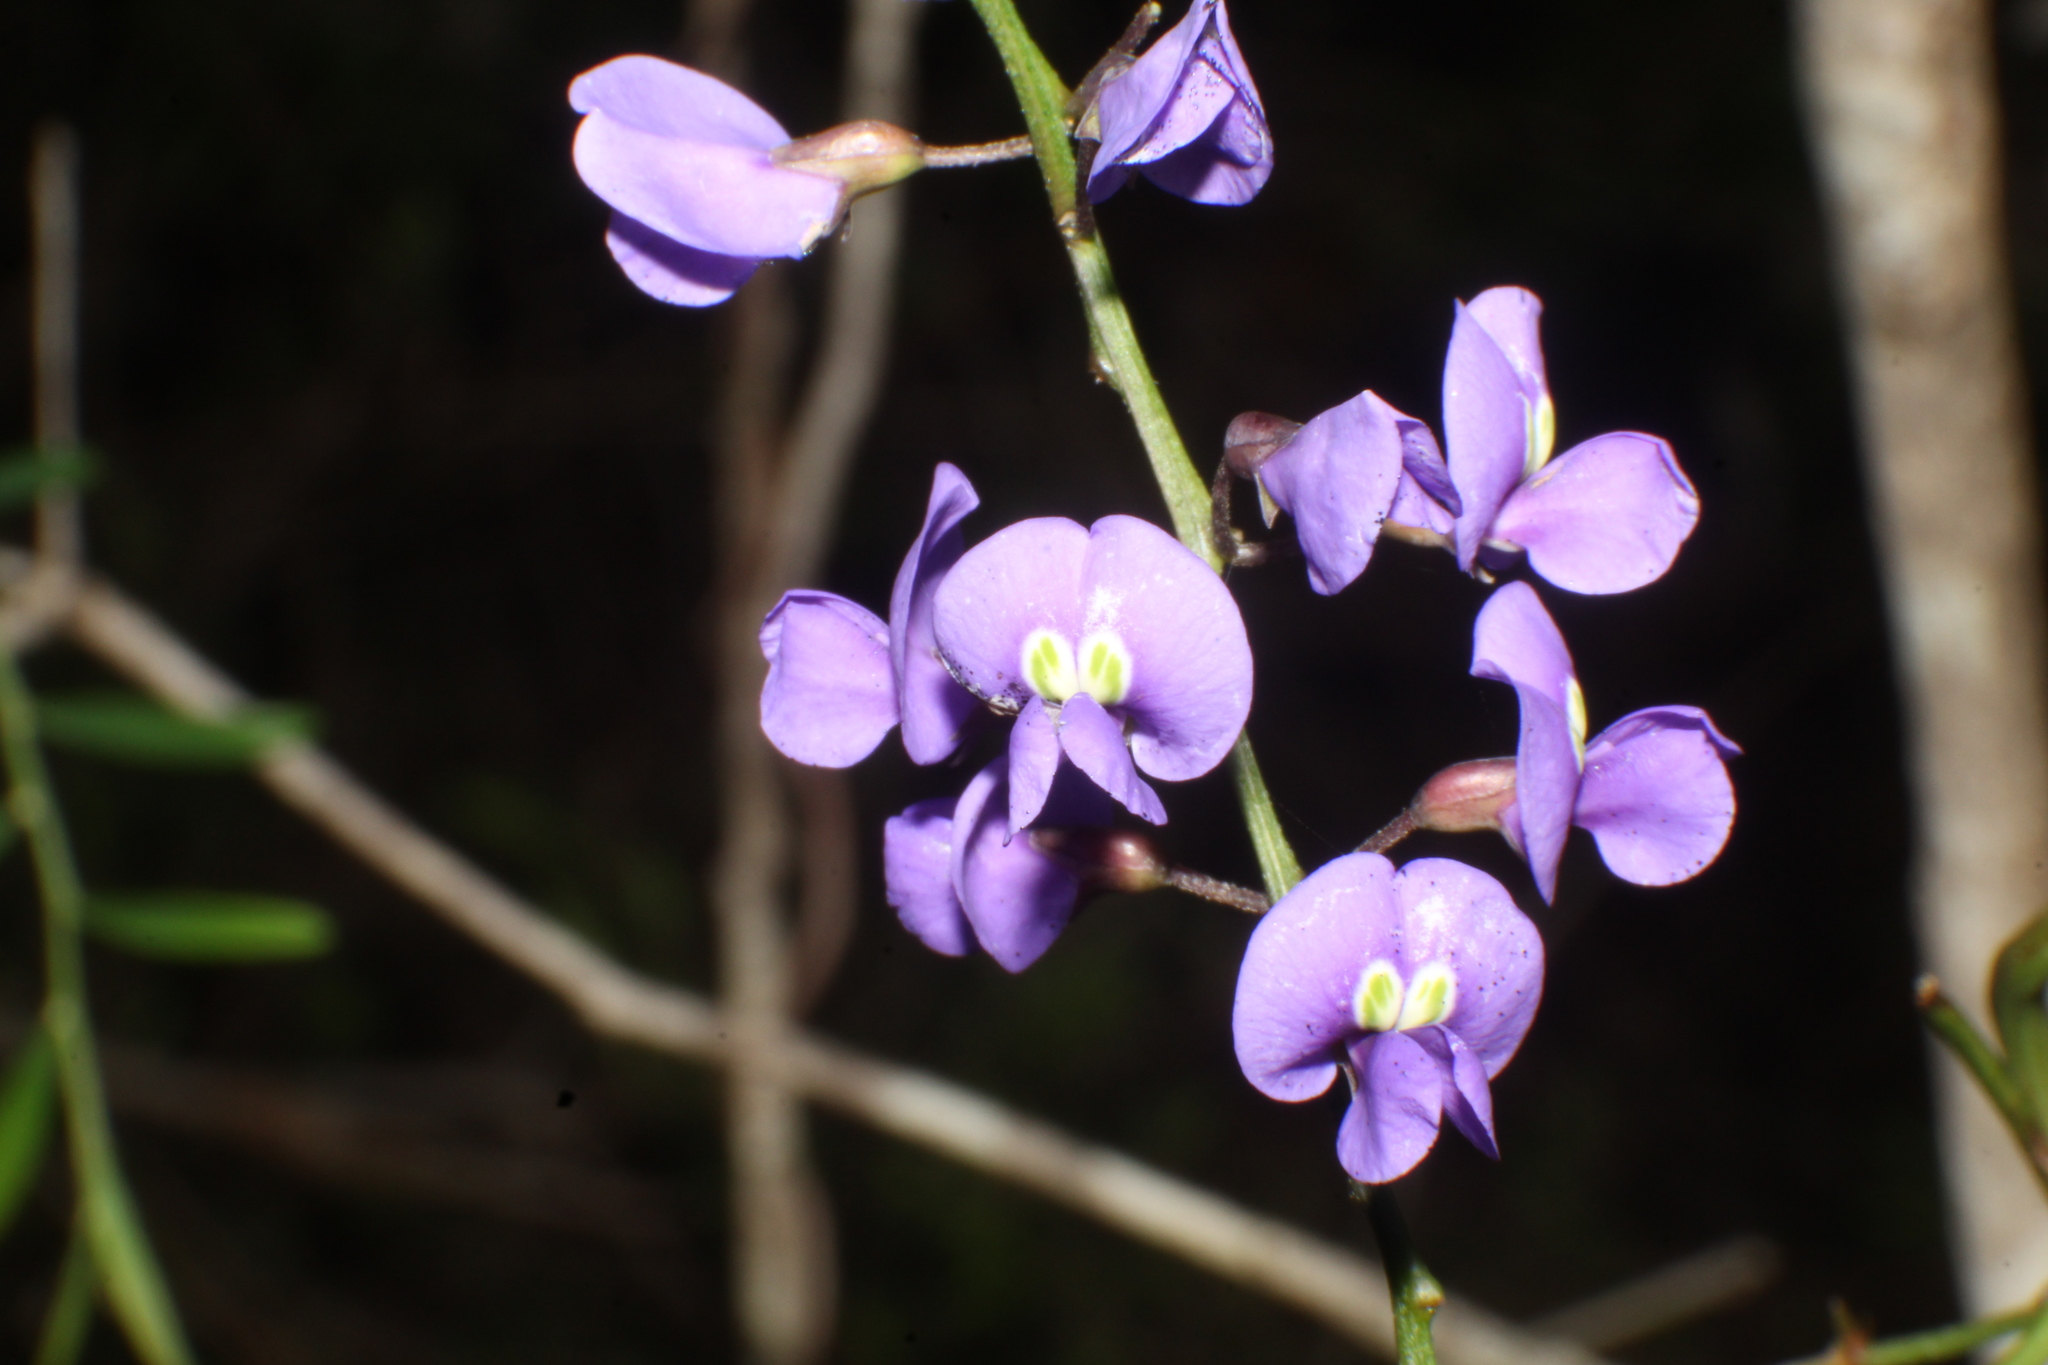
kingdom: Plantae
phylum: Tracheophyta
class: Magnoliopsida
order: Fabales
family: Fabaceae
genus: Hardenbergia
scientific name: Hardenbergia comptoniana
